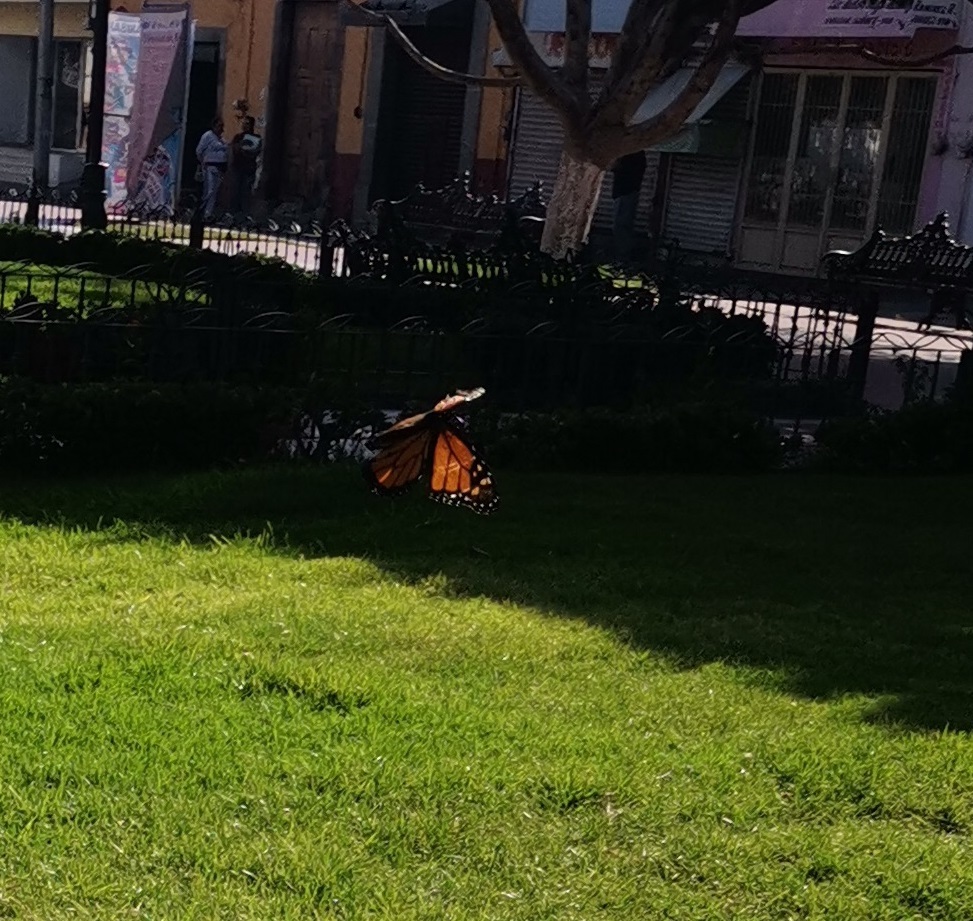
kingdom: Animalia
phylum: Arthropoda
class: Insecta
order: Lepidoptera
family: Nymphalidae
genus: Danaus
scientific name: Danaus plexippus
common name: Monarch
